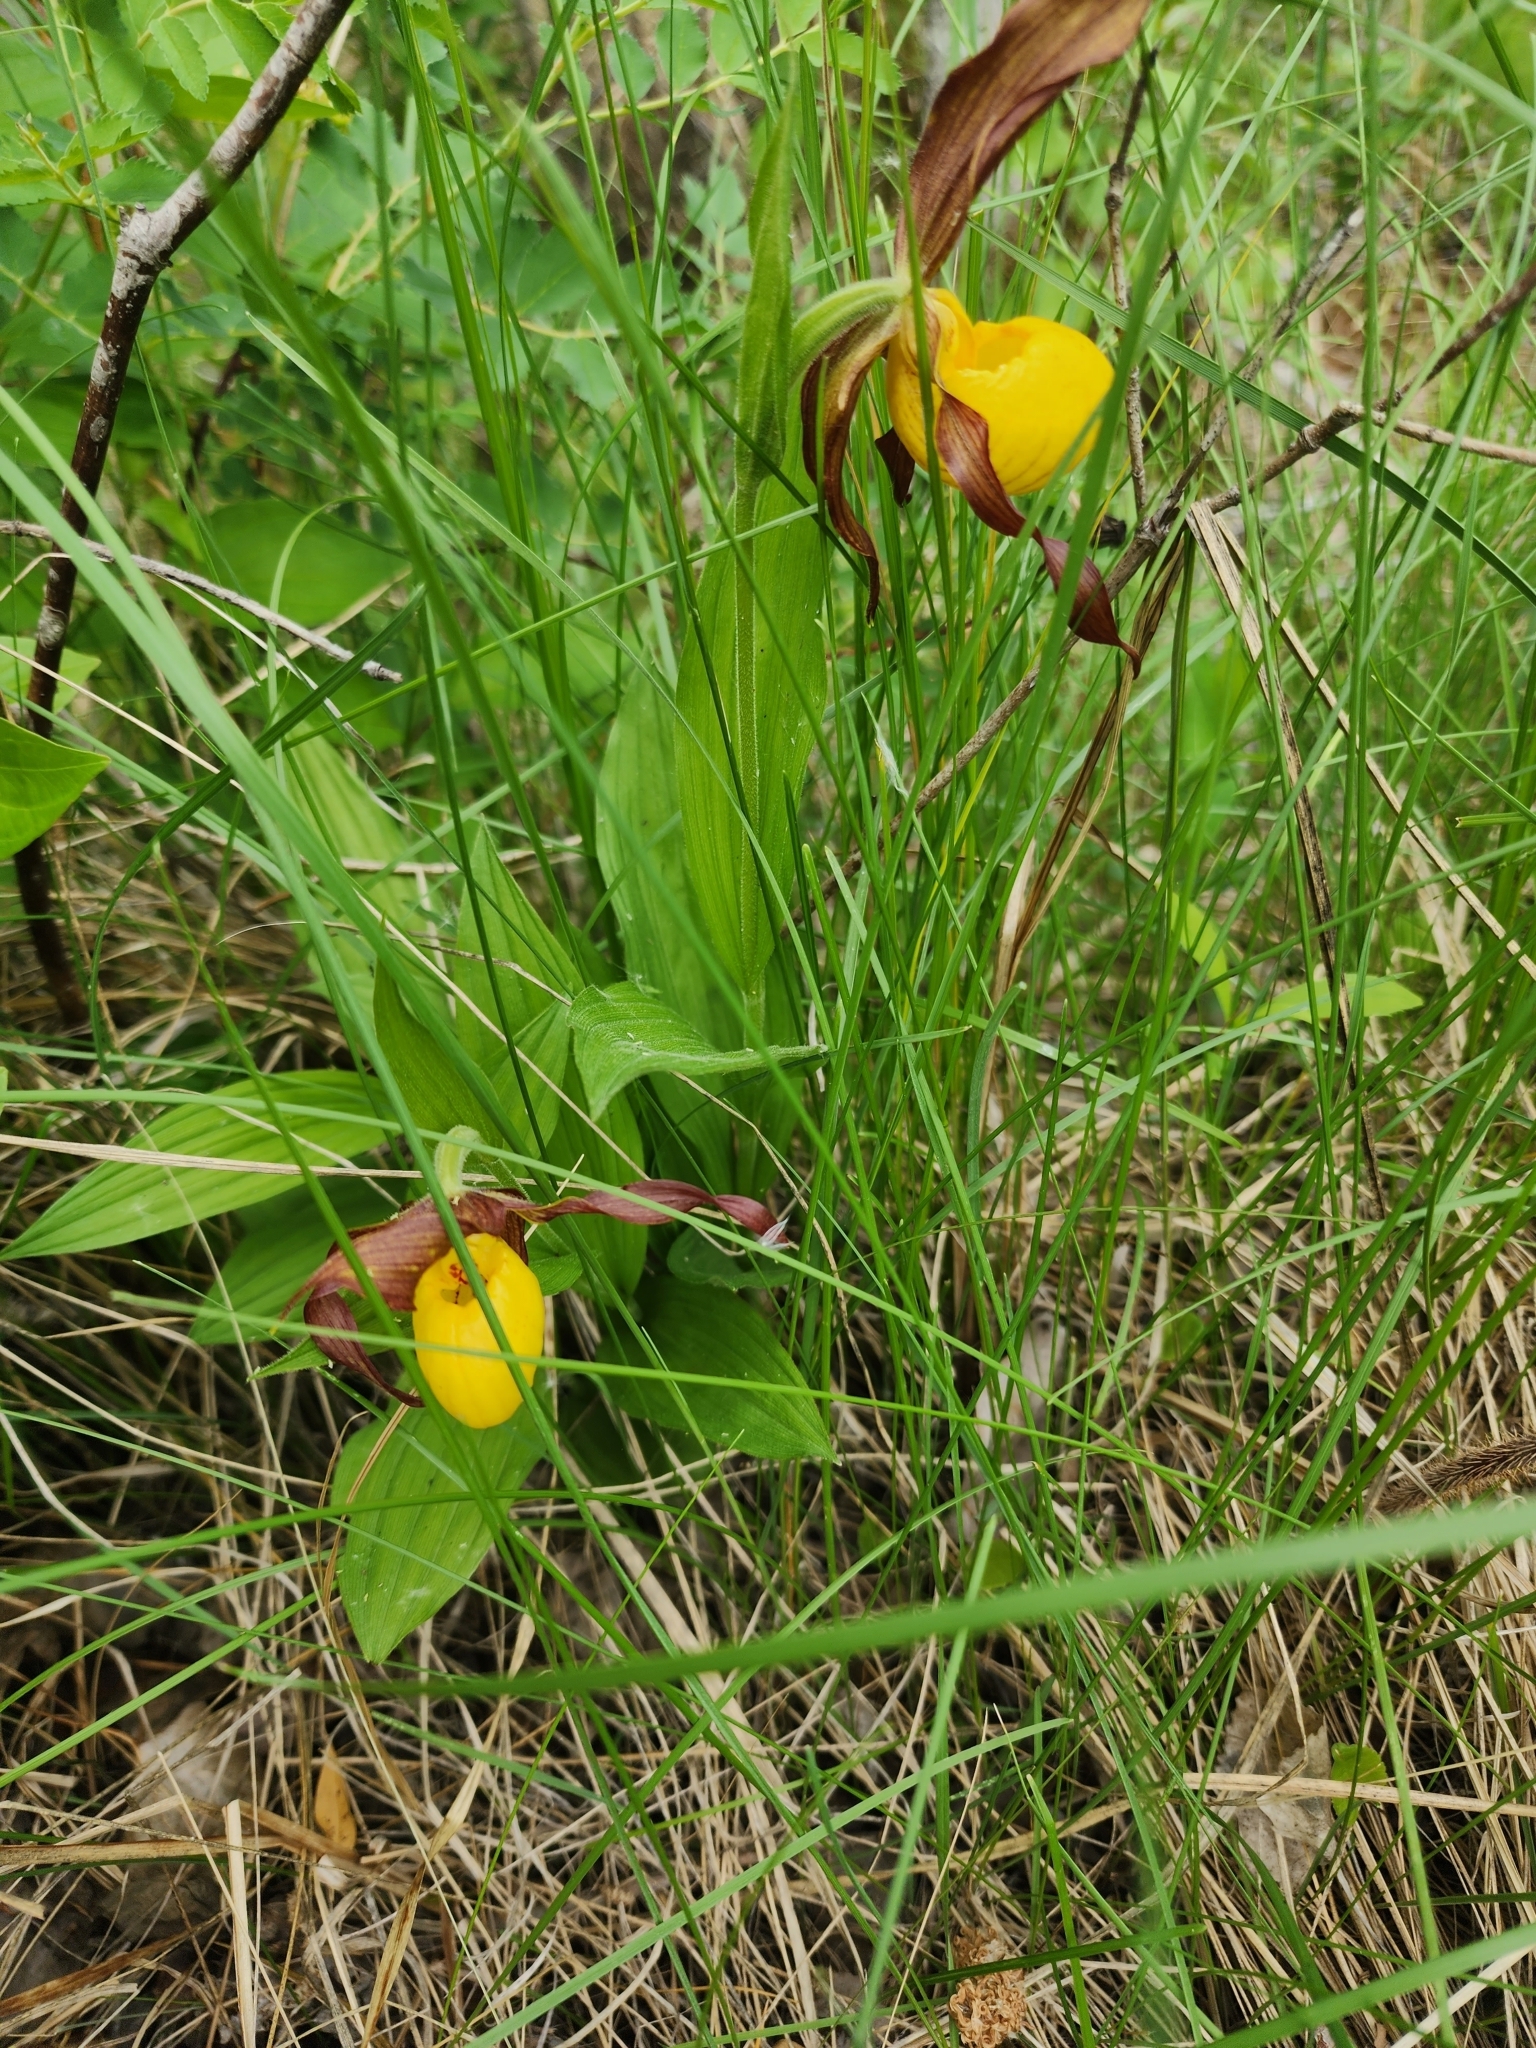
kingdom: Plantae
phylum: Tracheophyta
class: Liliopsida
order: Asparagales
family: Orchidaceae
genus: Cypripedium
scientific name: Cypripedium parviflorum
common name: American yellow lady's-slipper
